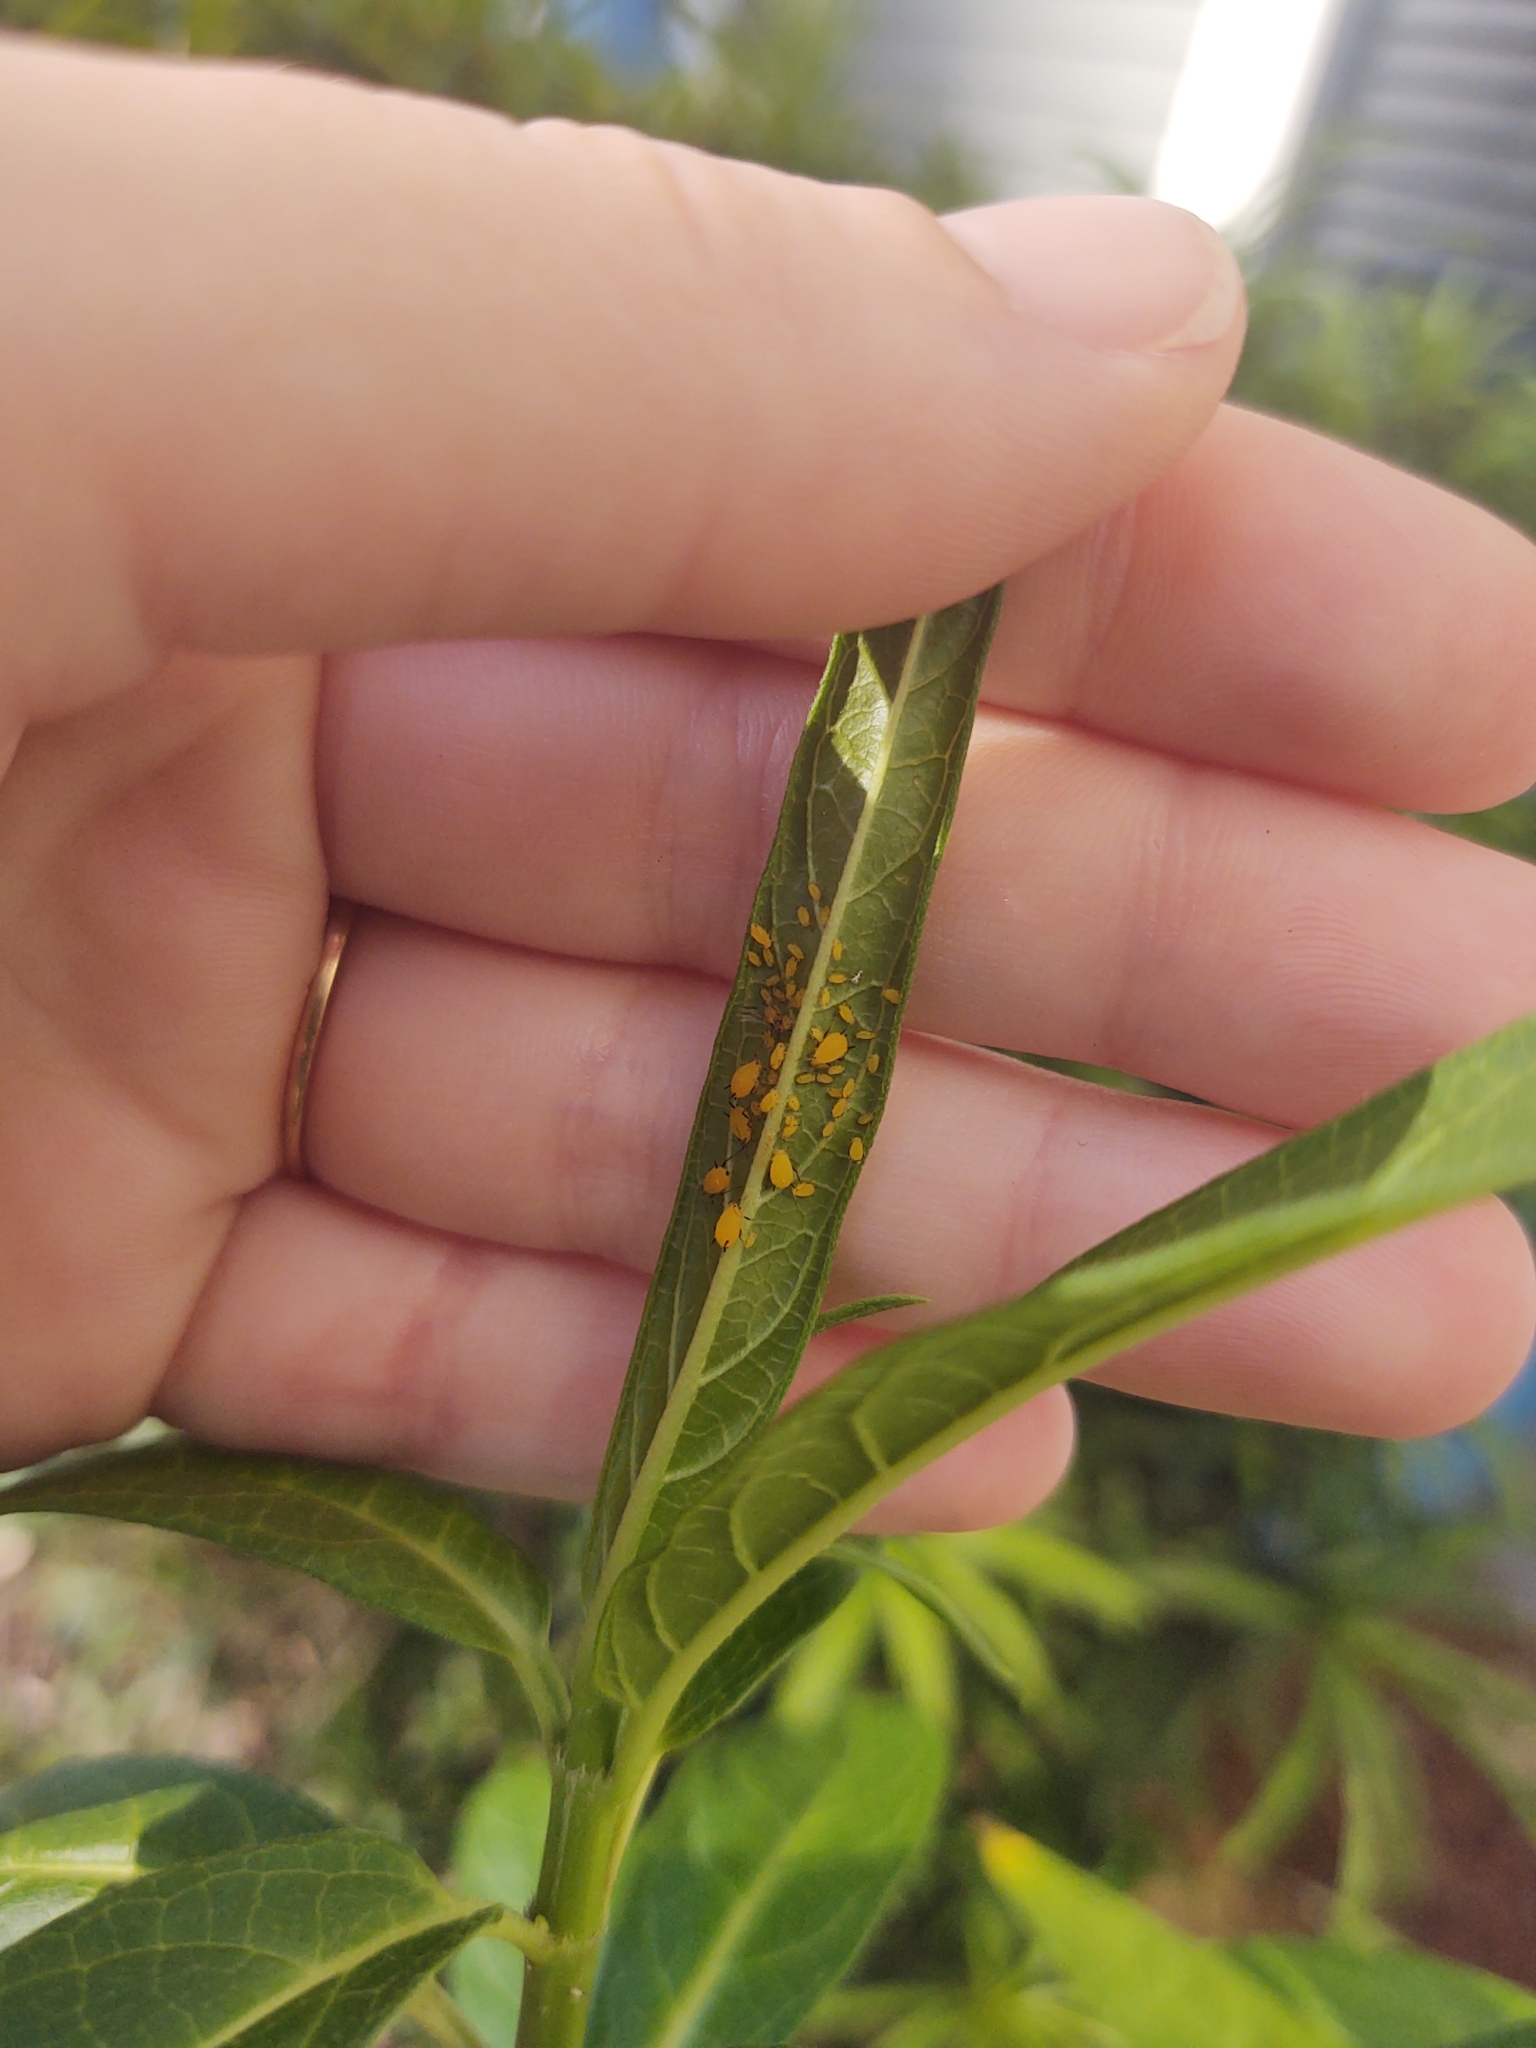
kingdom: Animalia
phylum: Arthropoda
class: Insecta
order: Hemiptera
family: Aphididae
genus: Aphis
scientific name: Aphis nerii
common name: Oleander aphid
